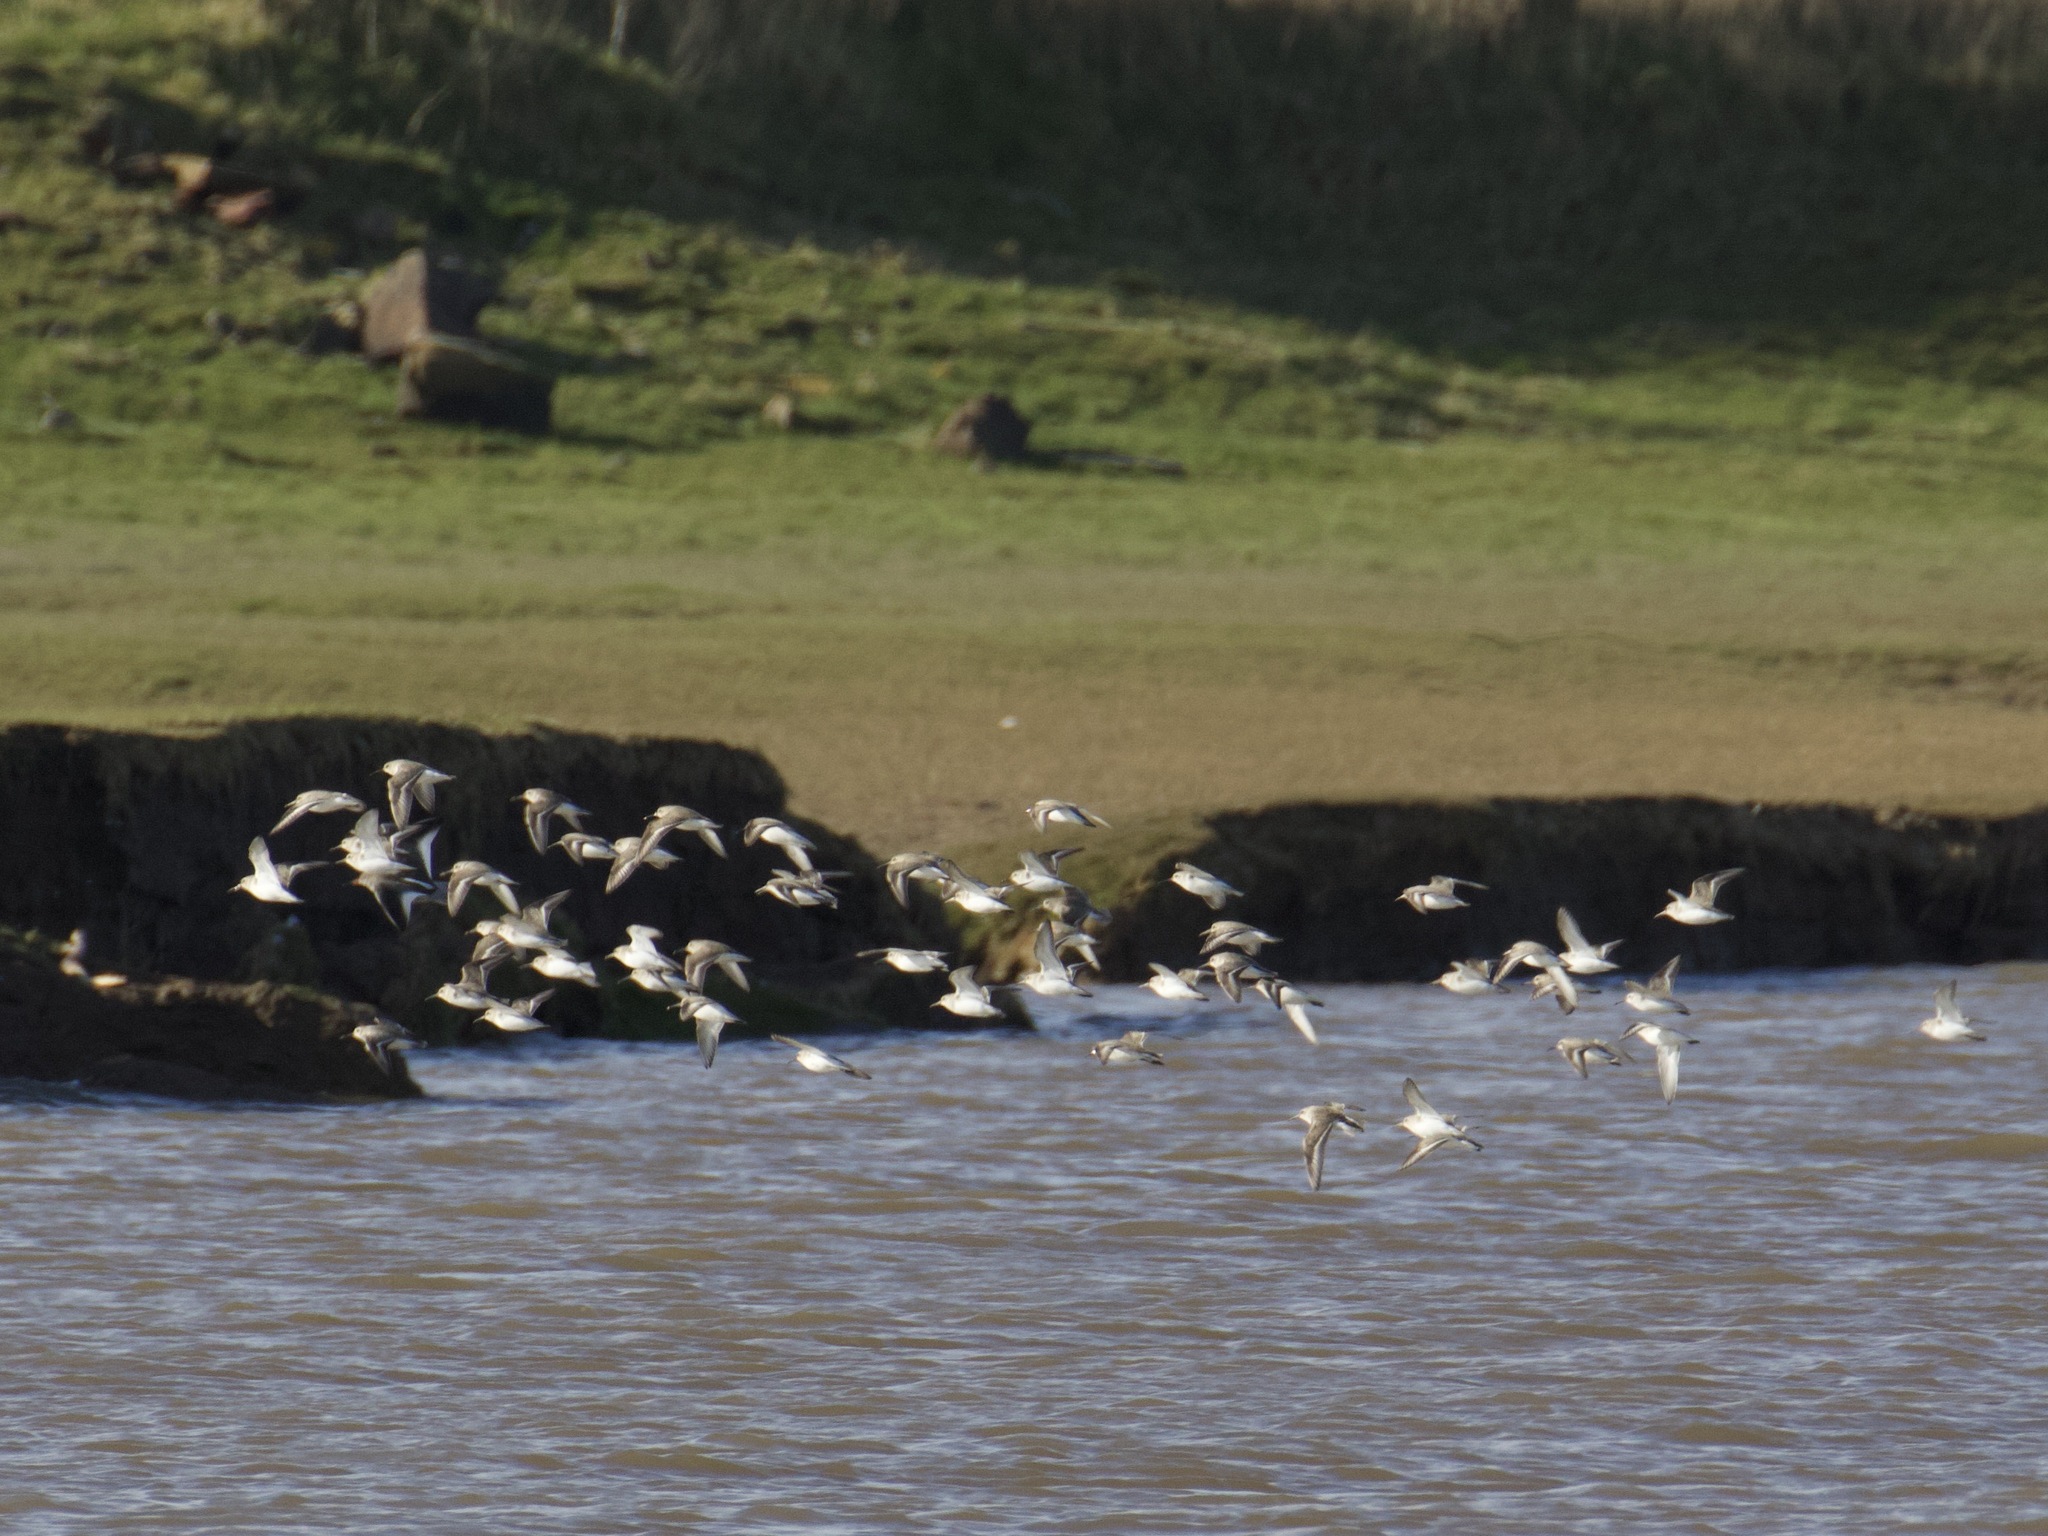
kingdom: Animalia
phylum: Chordata
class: Aves
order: Charadriiformes
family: Scolopacidae
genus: Calidris
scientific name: Calidris alpina
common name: Dunlin
